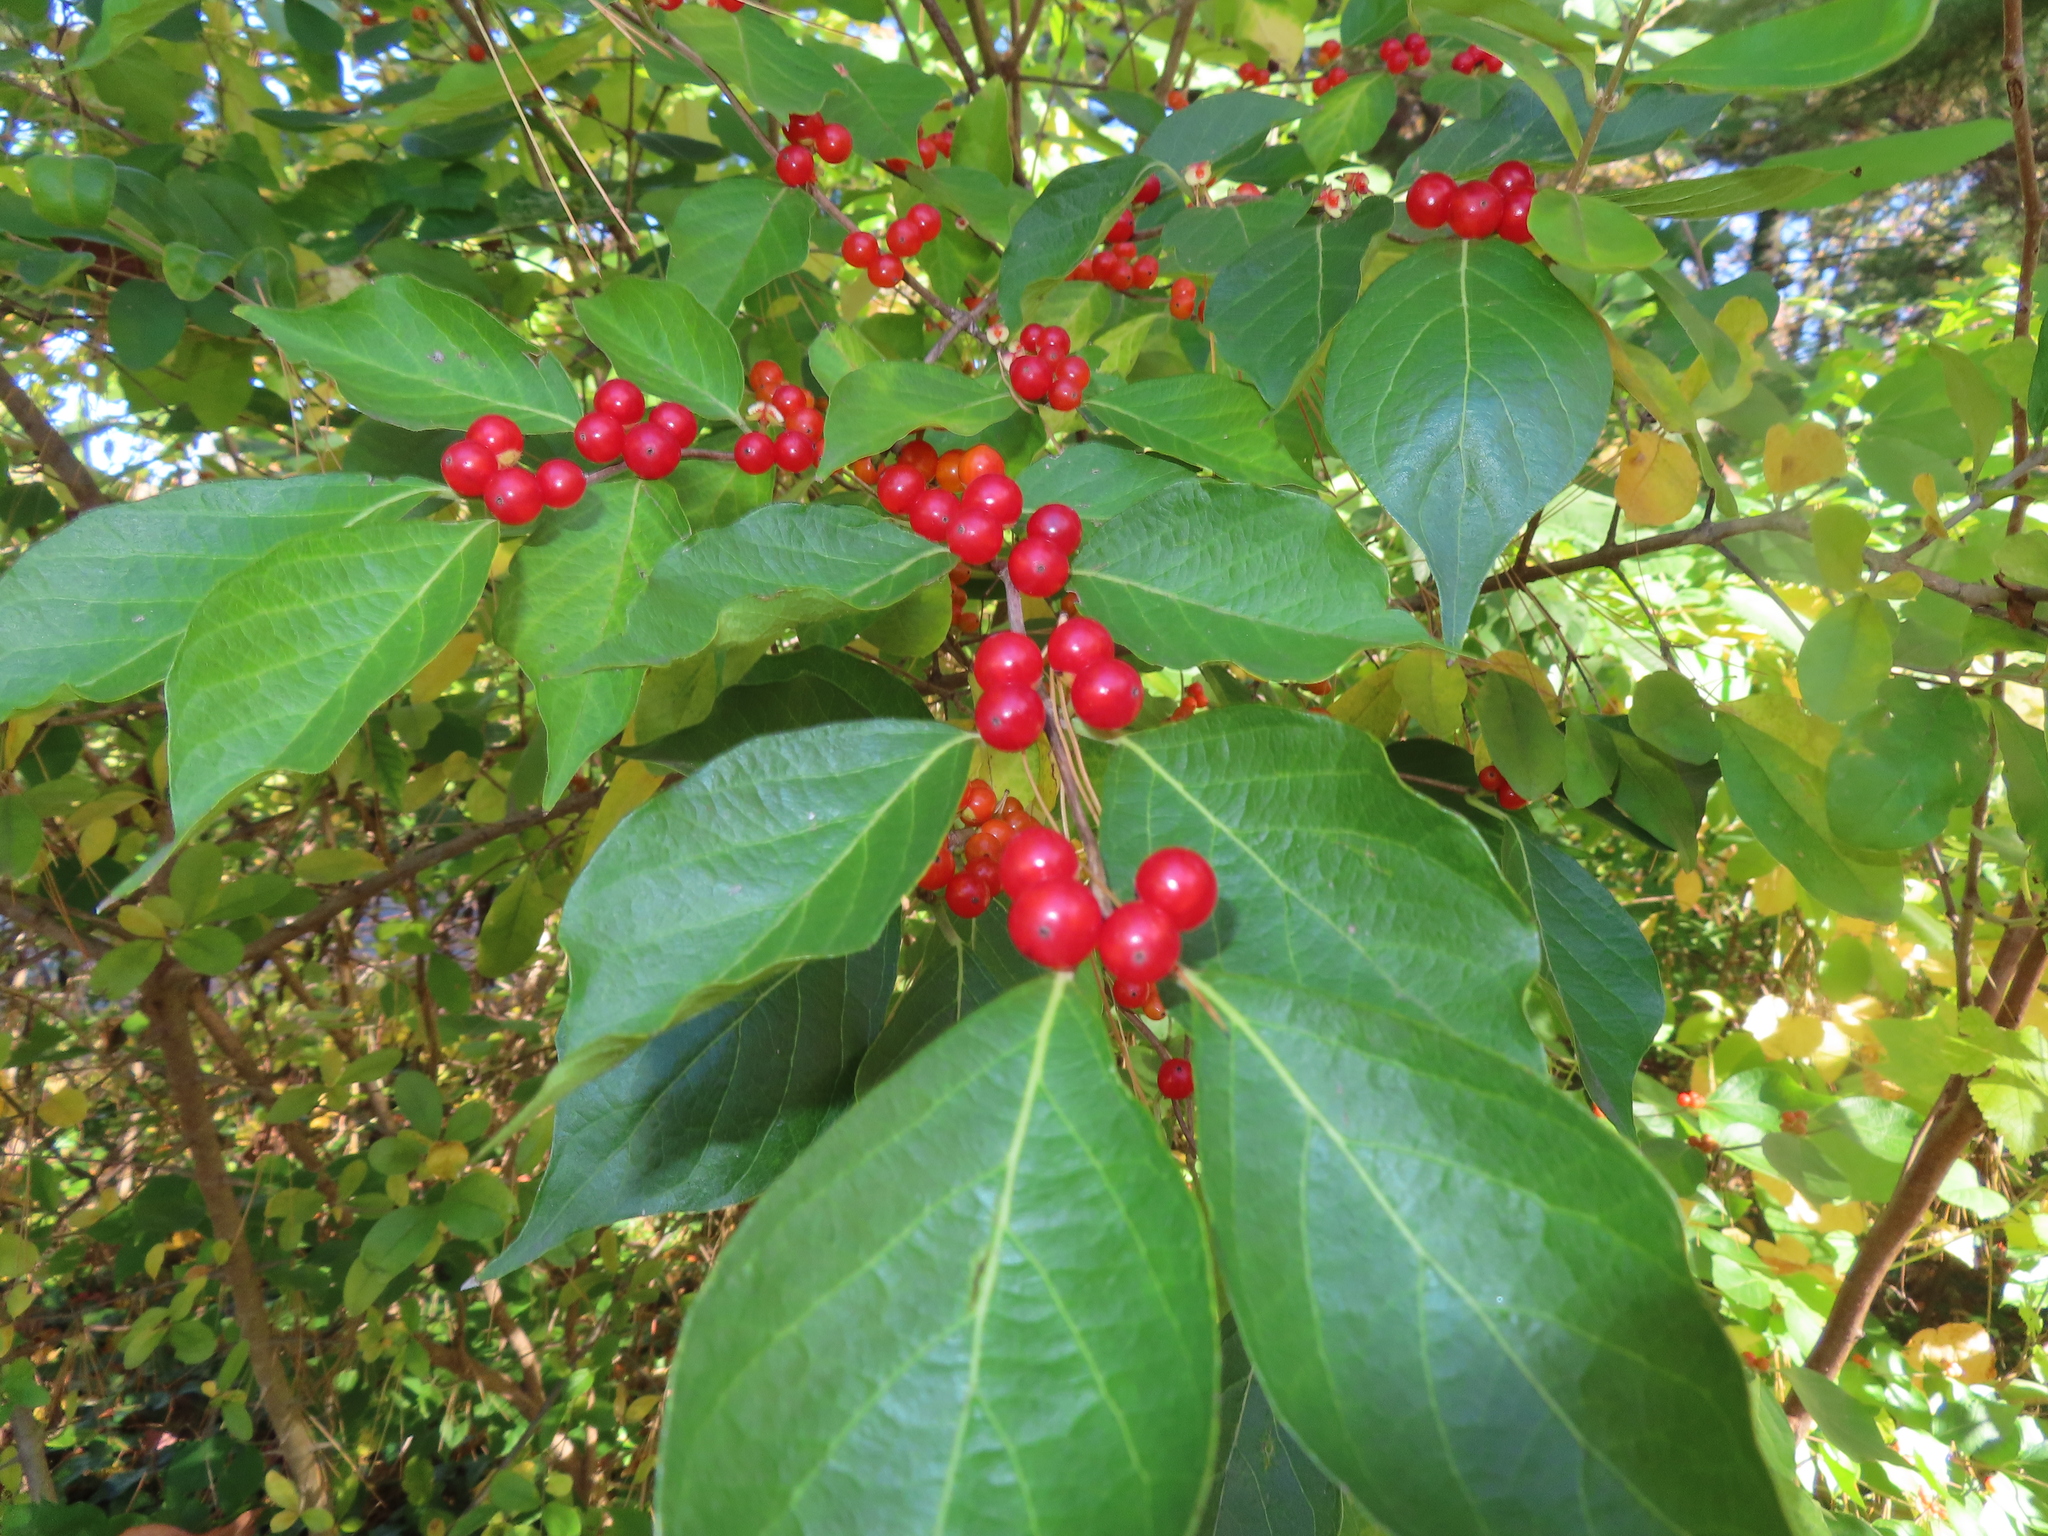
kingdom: Plantae
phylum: Tracheophyta
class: Magnoliopsida
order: Dipsacales
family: Caprifoliaceae
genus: Lonicera
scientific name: Lonicera maackii
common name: Amur honeysuckle
